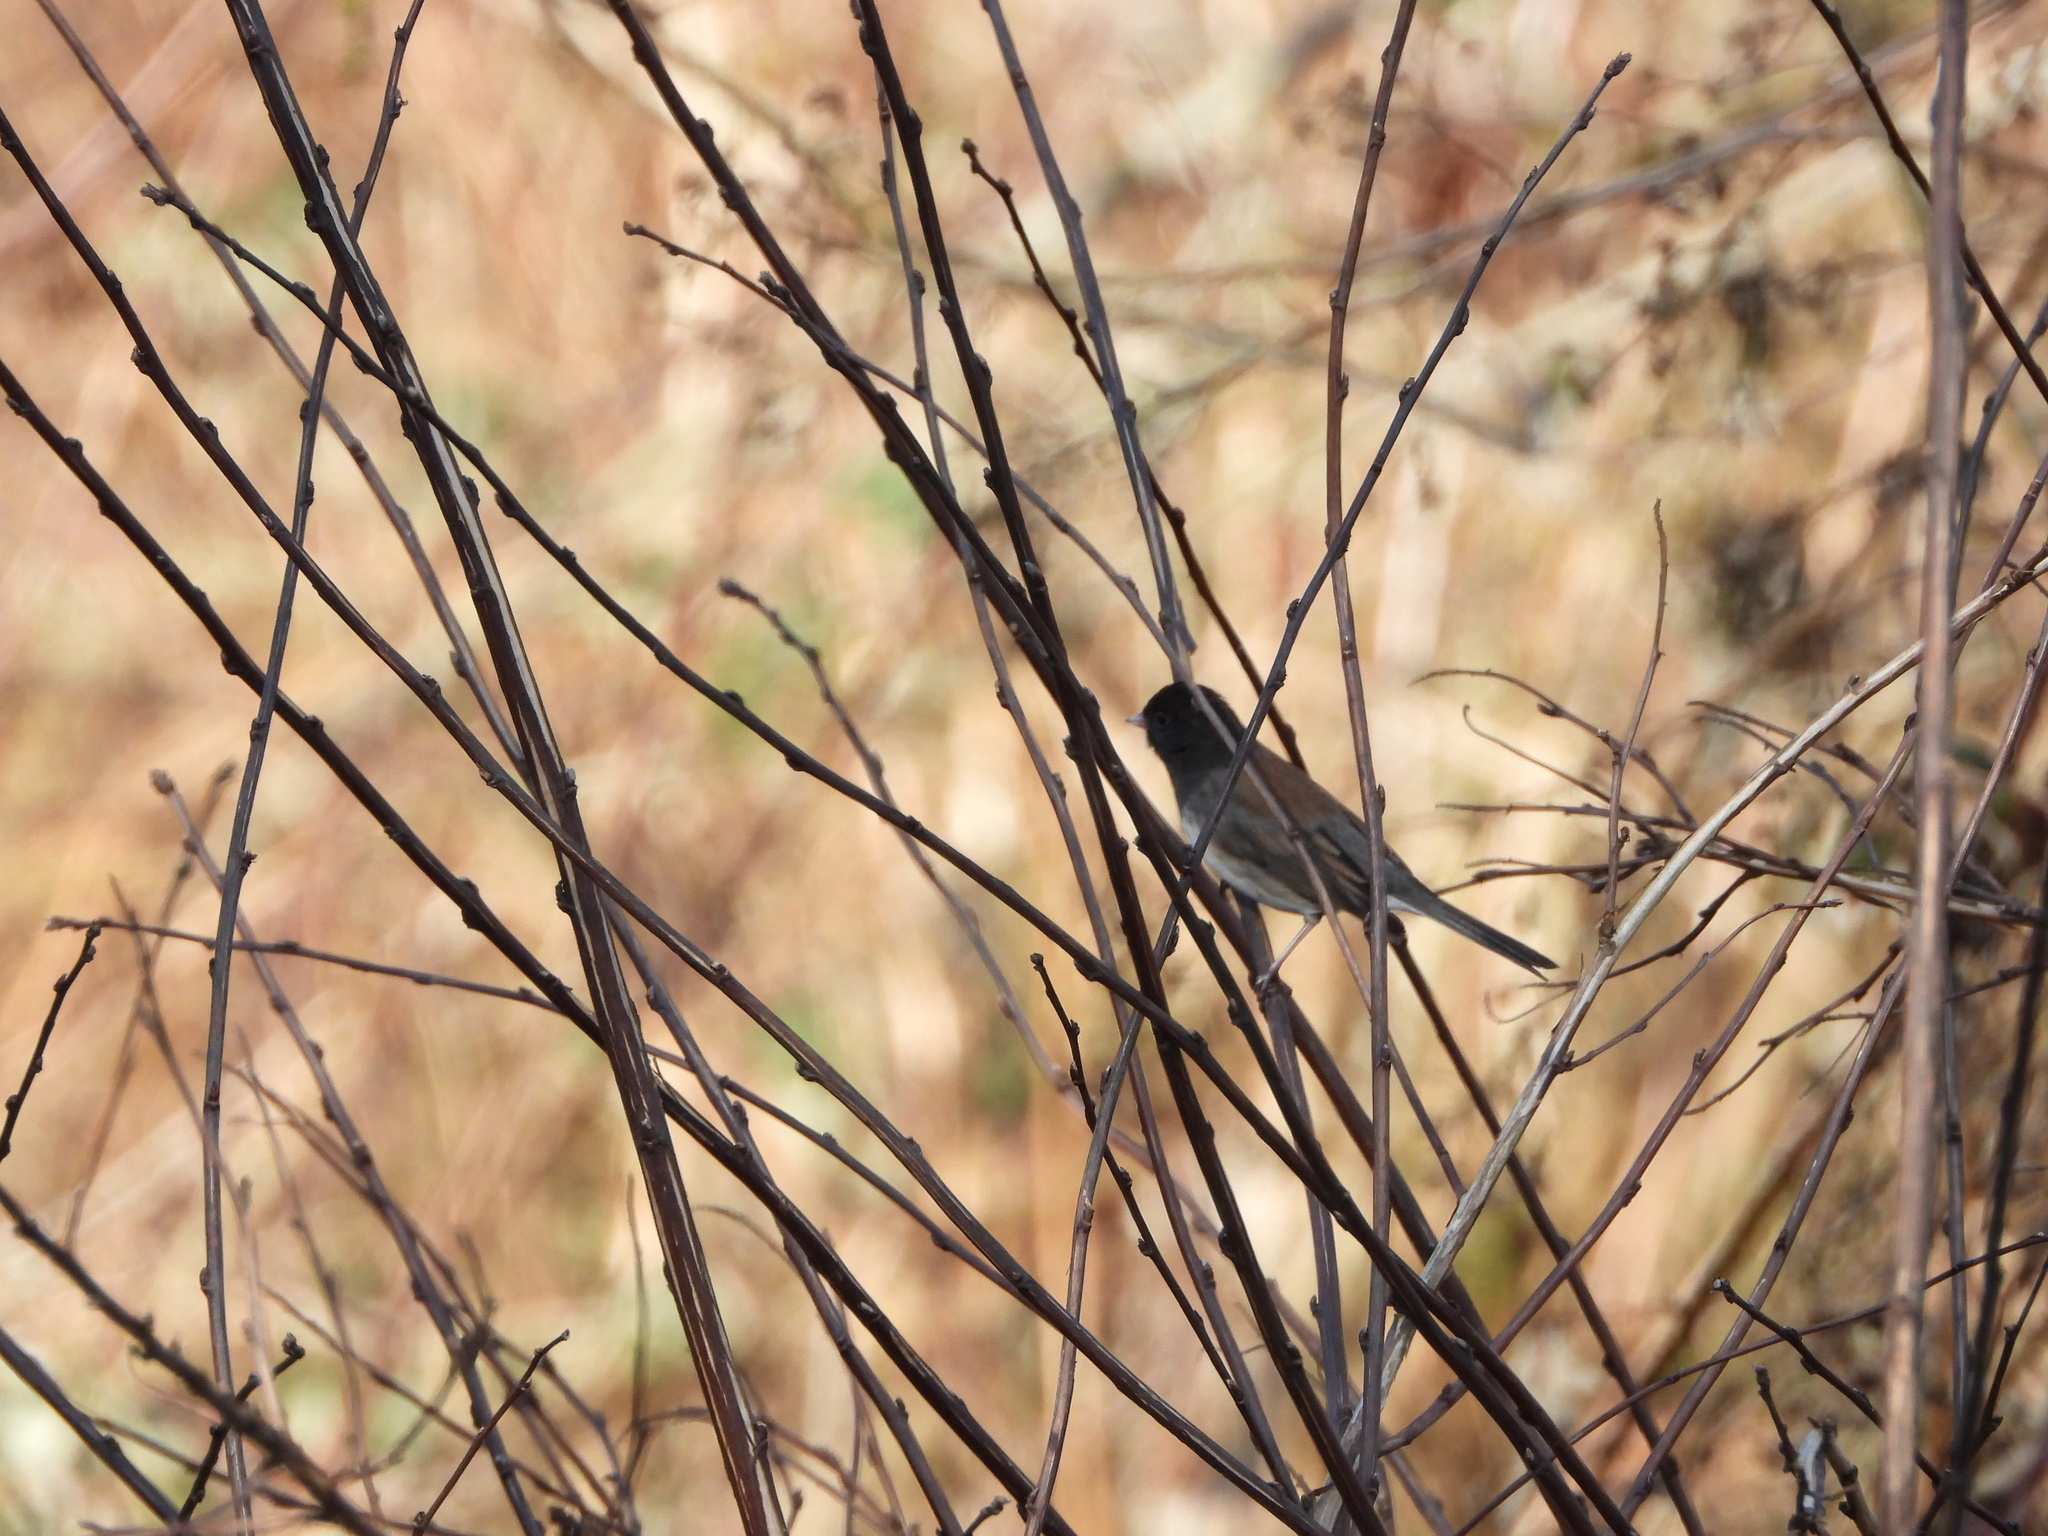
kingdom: Animalia
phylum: Chordata
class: Aves
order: Passeriformes
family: Passerellidae
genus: Junco
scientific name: Junco hyemalis
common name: Dark-eyed junco
